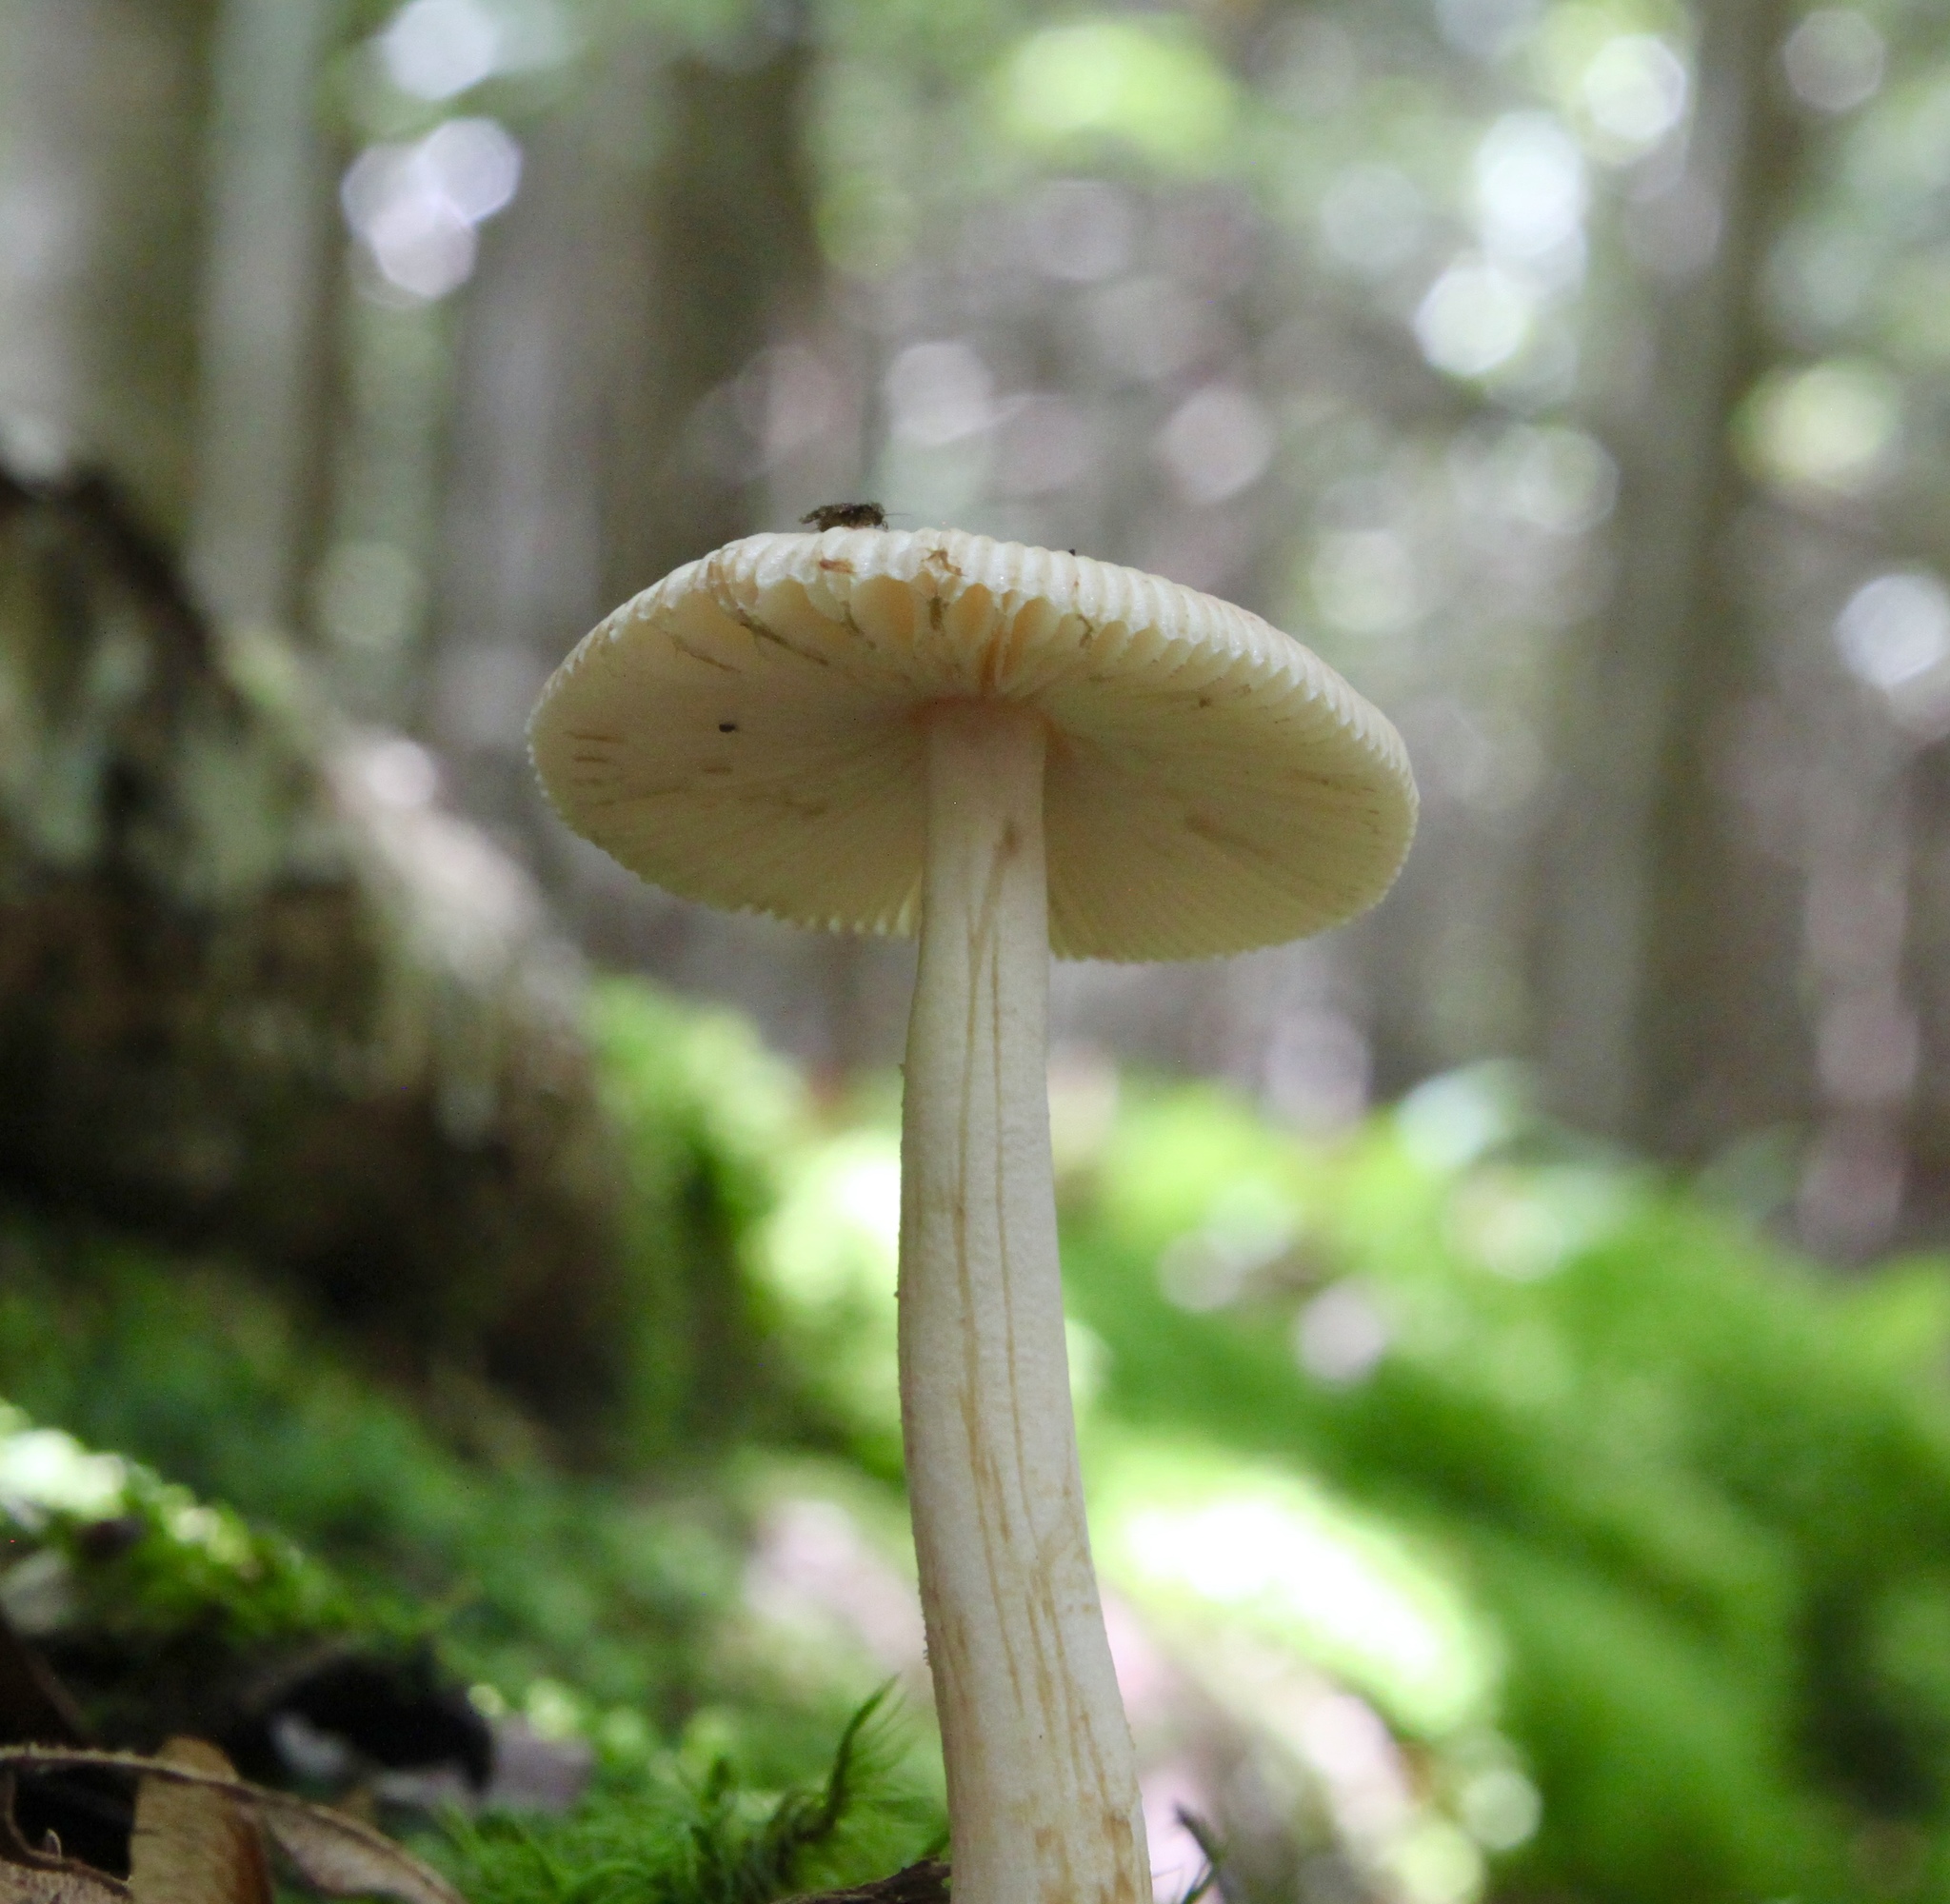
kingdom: Fungi
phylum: Basidiomycota
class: Agaricomycetes
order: Agaricales
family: Amanitaceae
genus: Amanita
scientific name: Amanita fulva
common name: Tawny grisette
